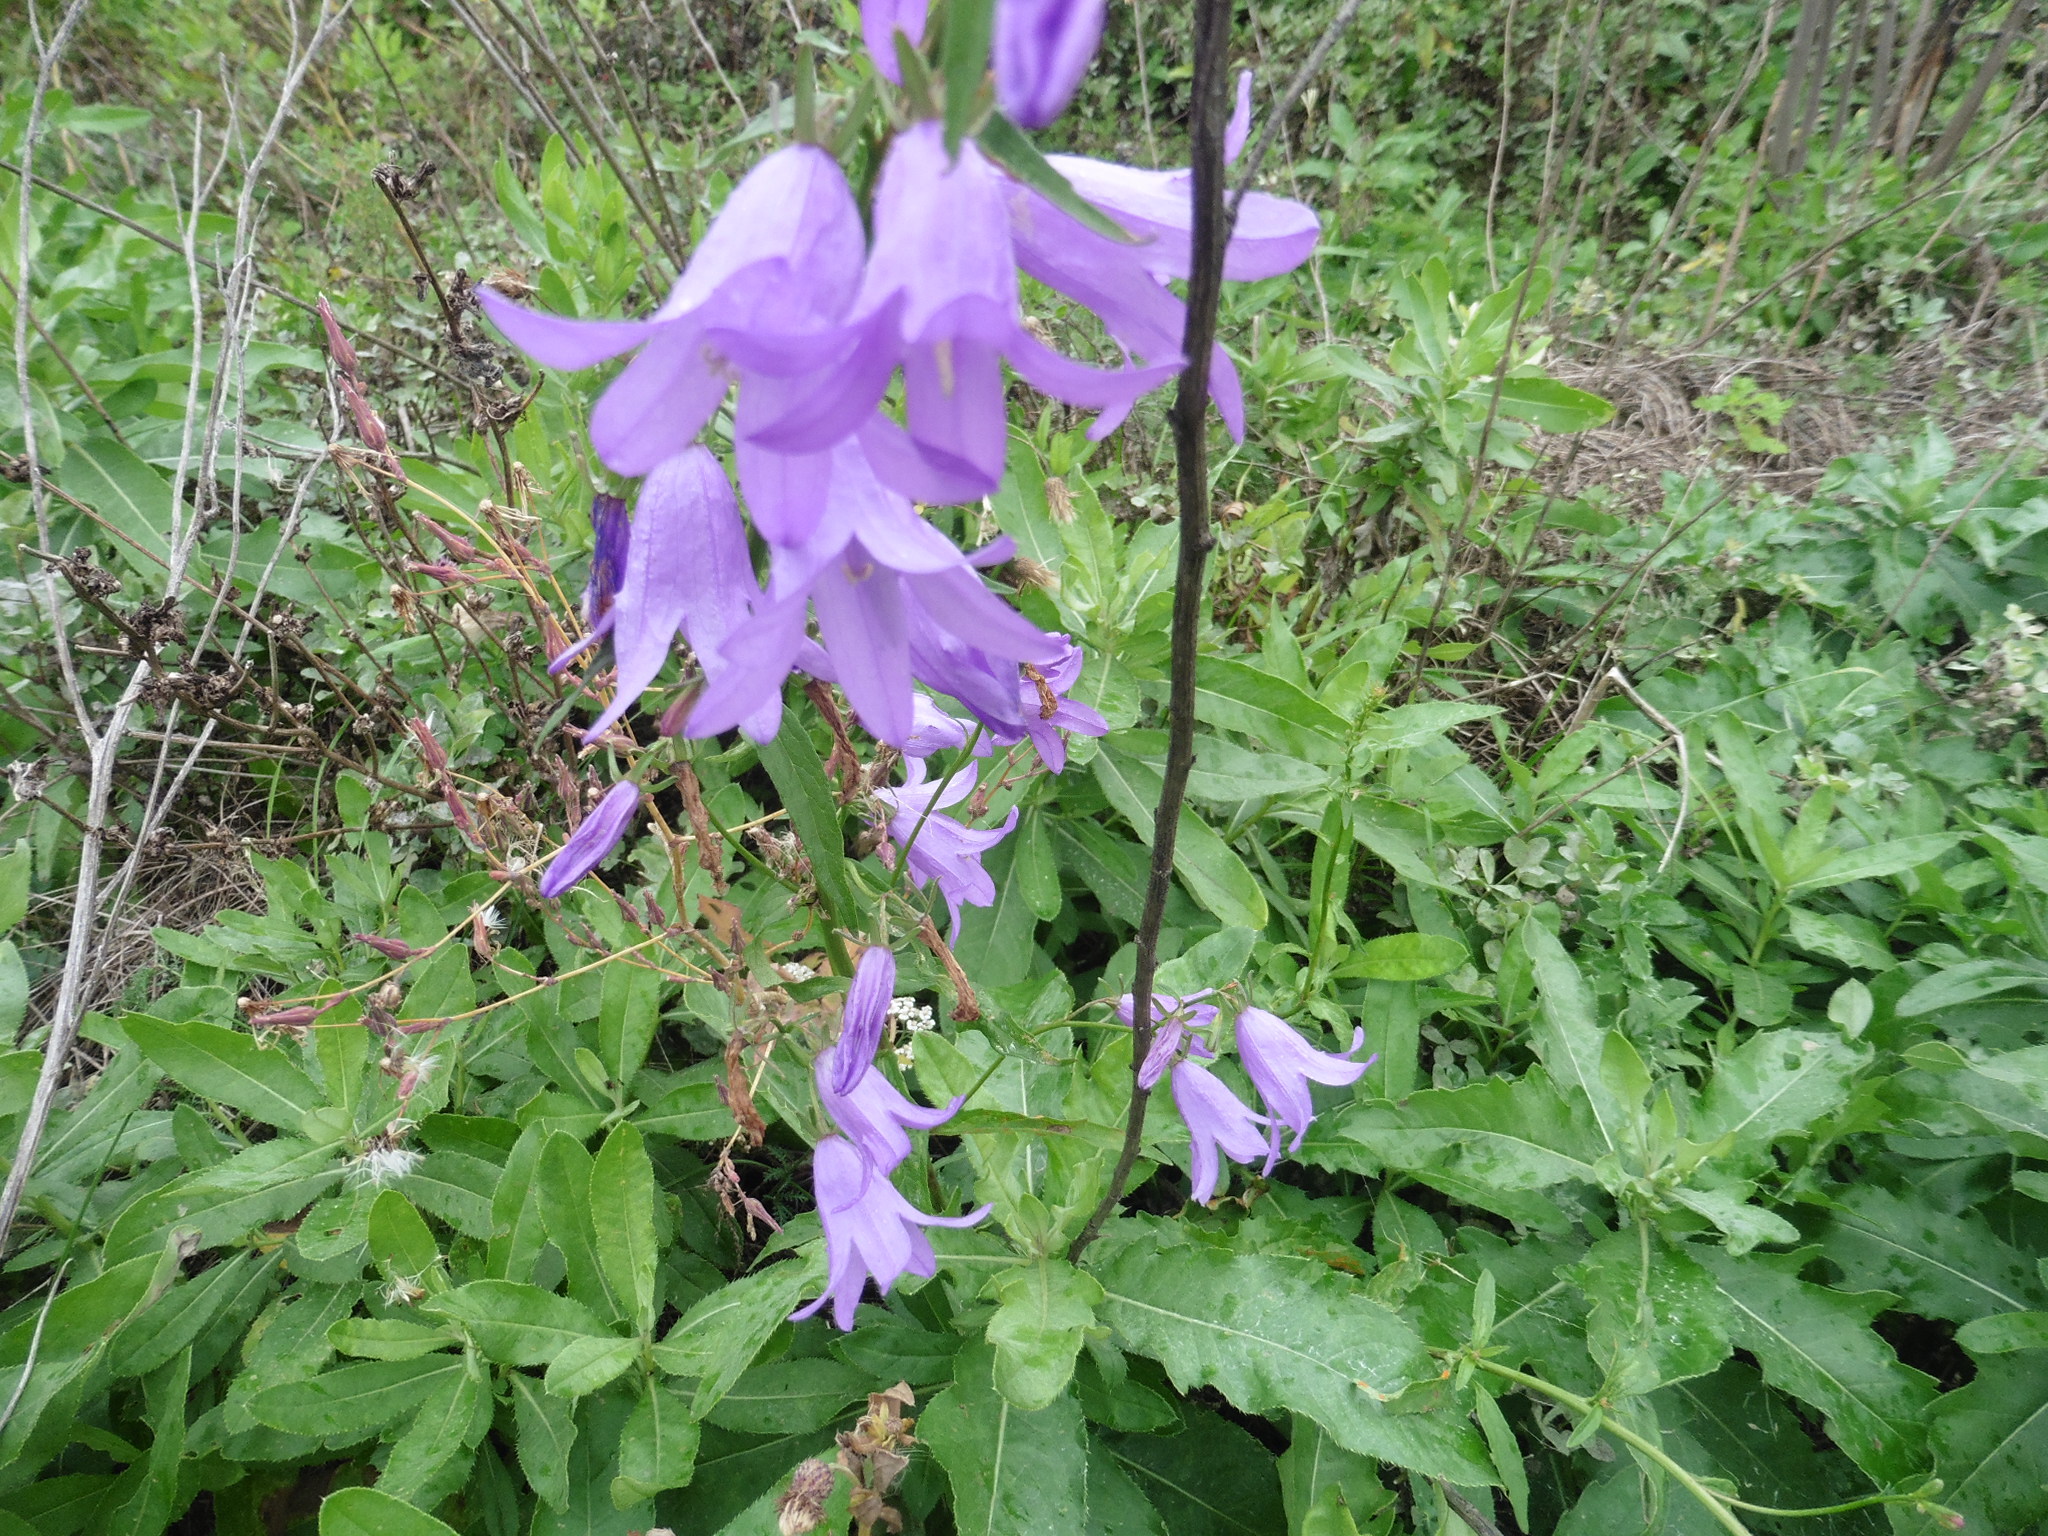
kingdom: Plantae
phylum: Tracheophyta
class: Magnoliopsida
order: Asterales
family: Campanulaceae
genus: Campanula
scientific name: Campanula rapunculoides
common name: Creeping bellflower
